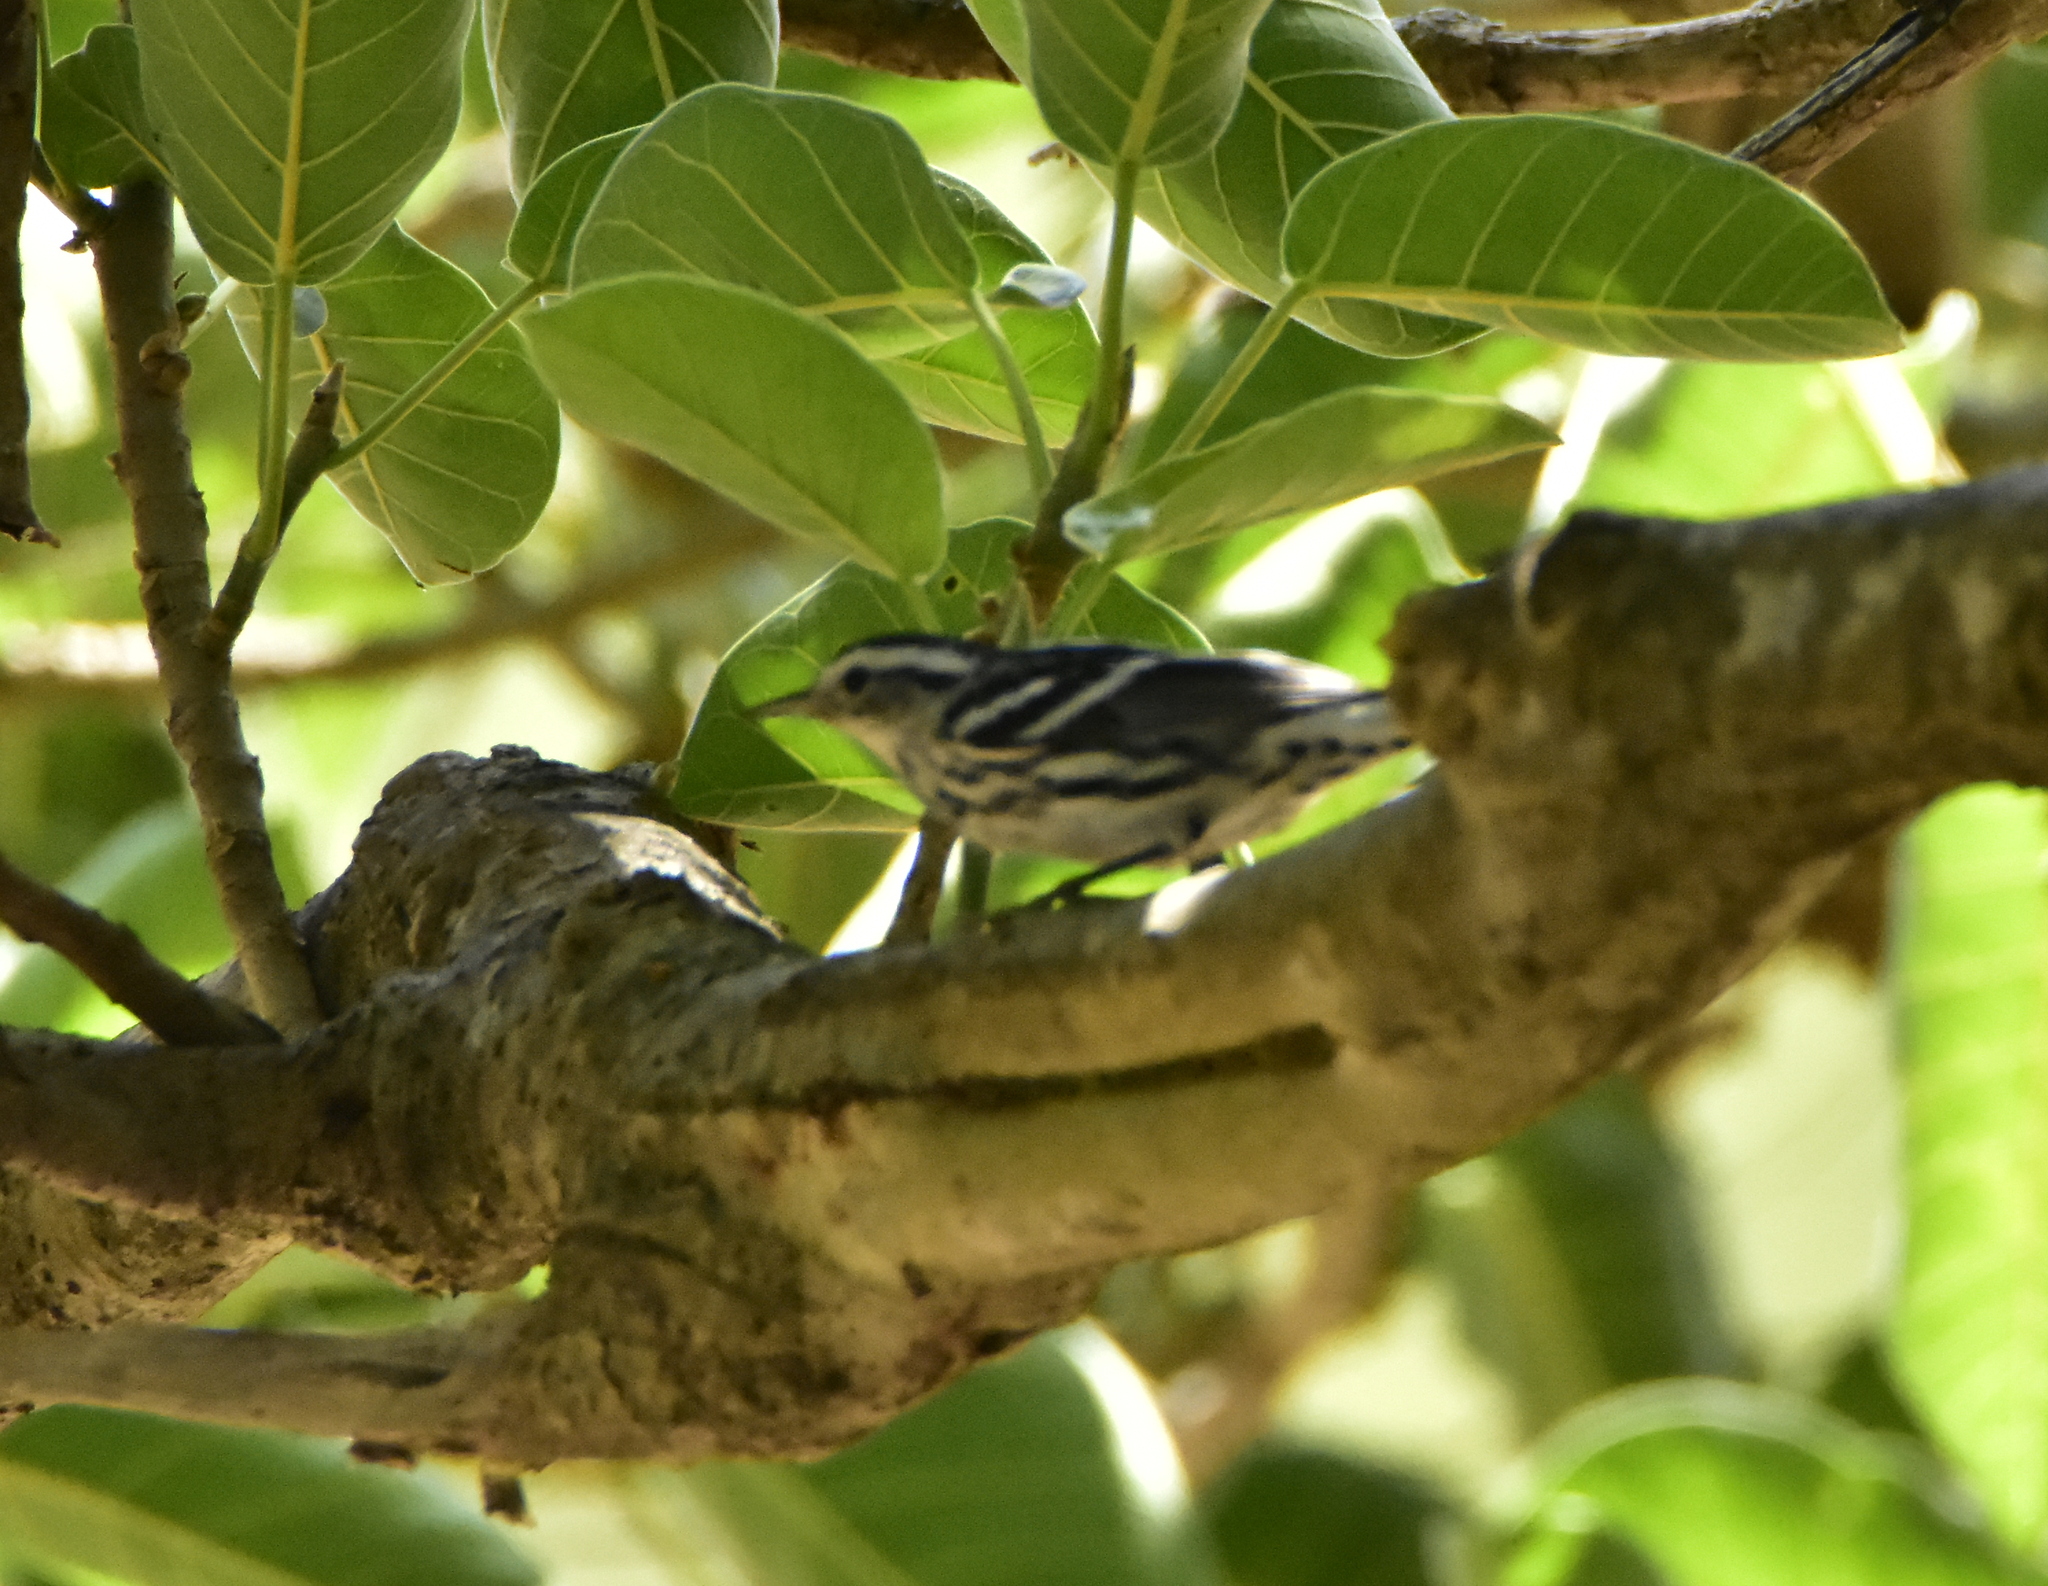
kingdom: Animalia
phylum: Chordata
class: Aves
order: Passeriformes
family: Parulidae
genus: Mniotilta
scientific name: Mniotilta varia
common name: Black-and-white warbler
